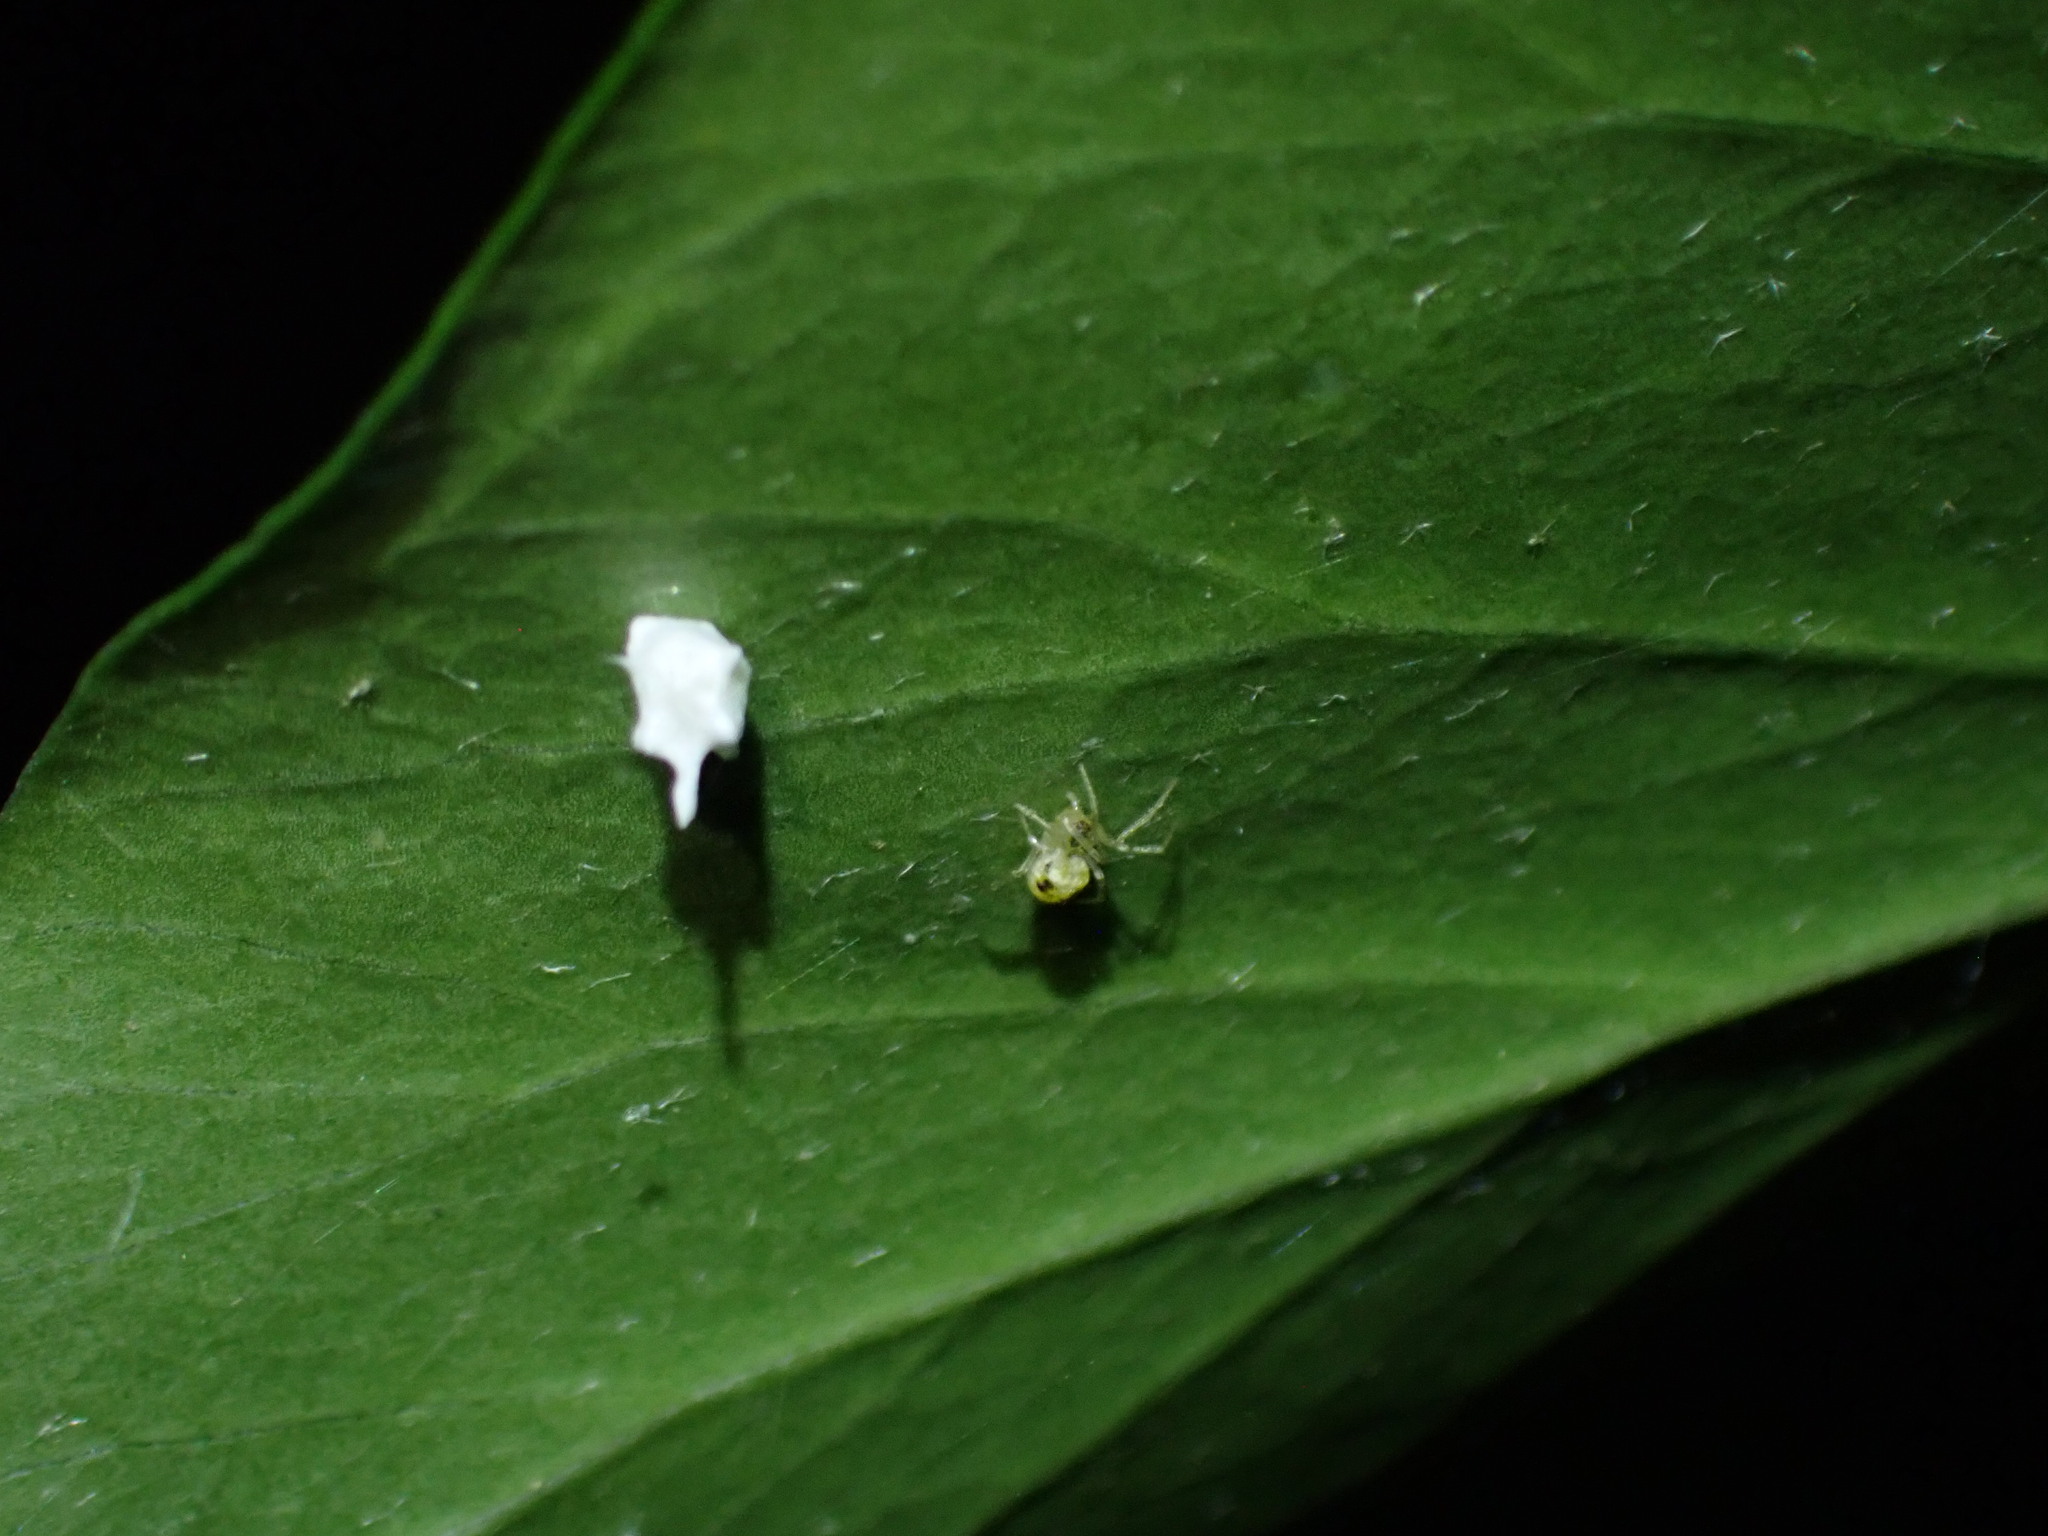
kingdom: Animalia
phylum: Arthropoda
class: Arachnida
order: Araneae
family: Theridiidae
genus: Paidiscura
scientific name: Paidiscura pallens
